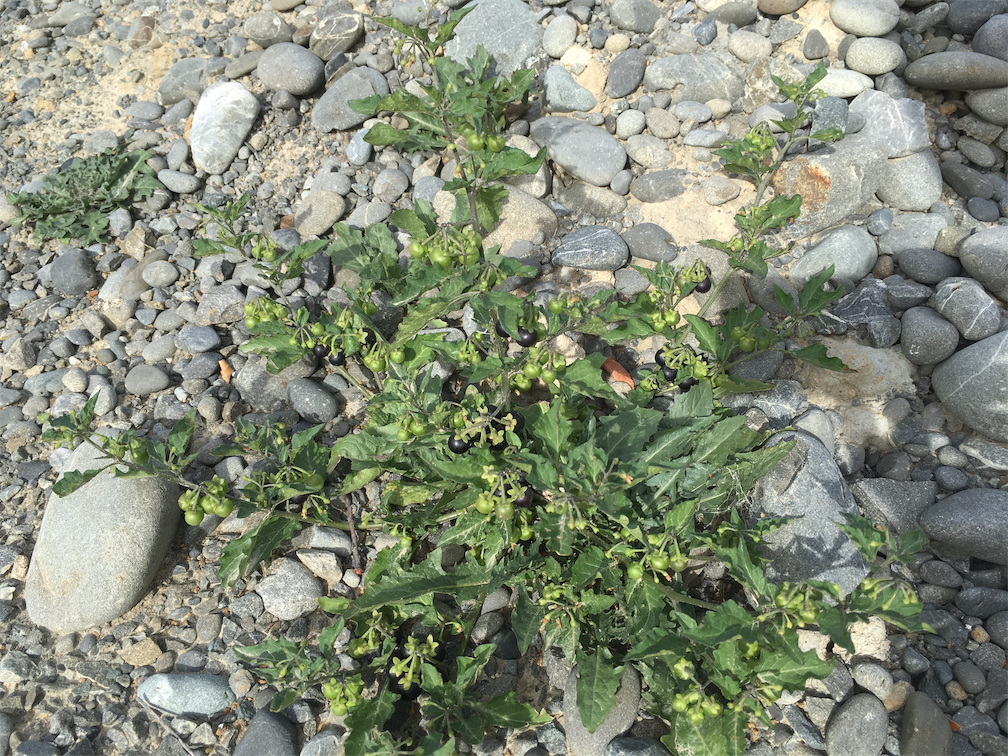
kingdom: Plantae
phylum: Tracheophyta
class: Magnoliopsida
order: Solanales
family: Solanaceae
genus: Solanum
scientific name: Solanum nigrum
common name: Black nightshade
